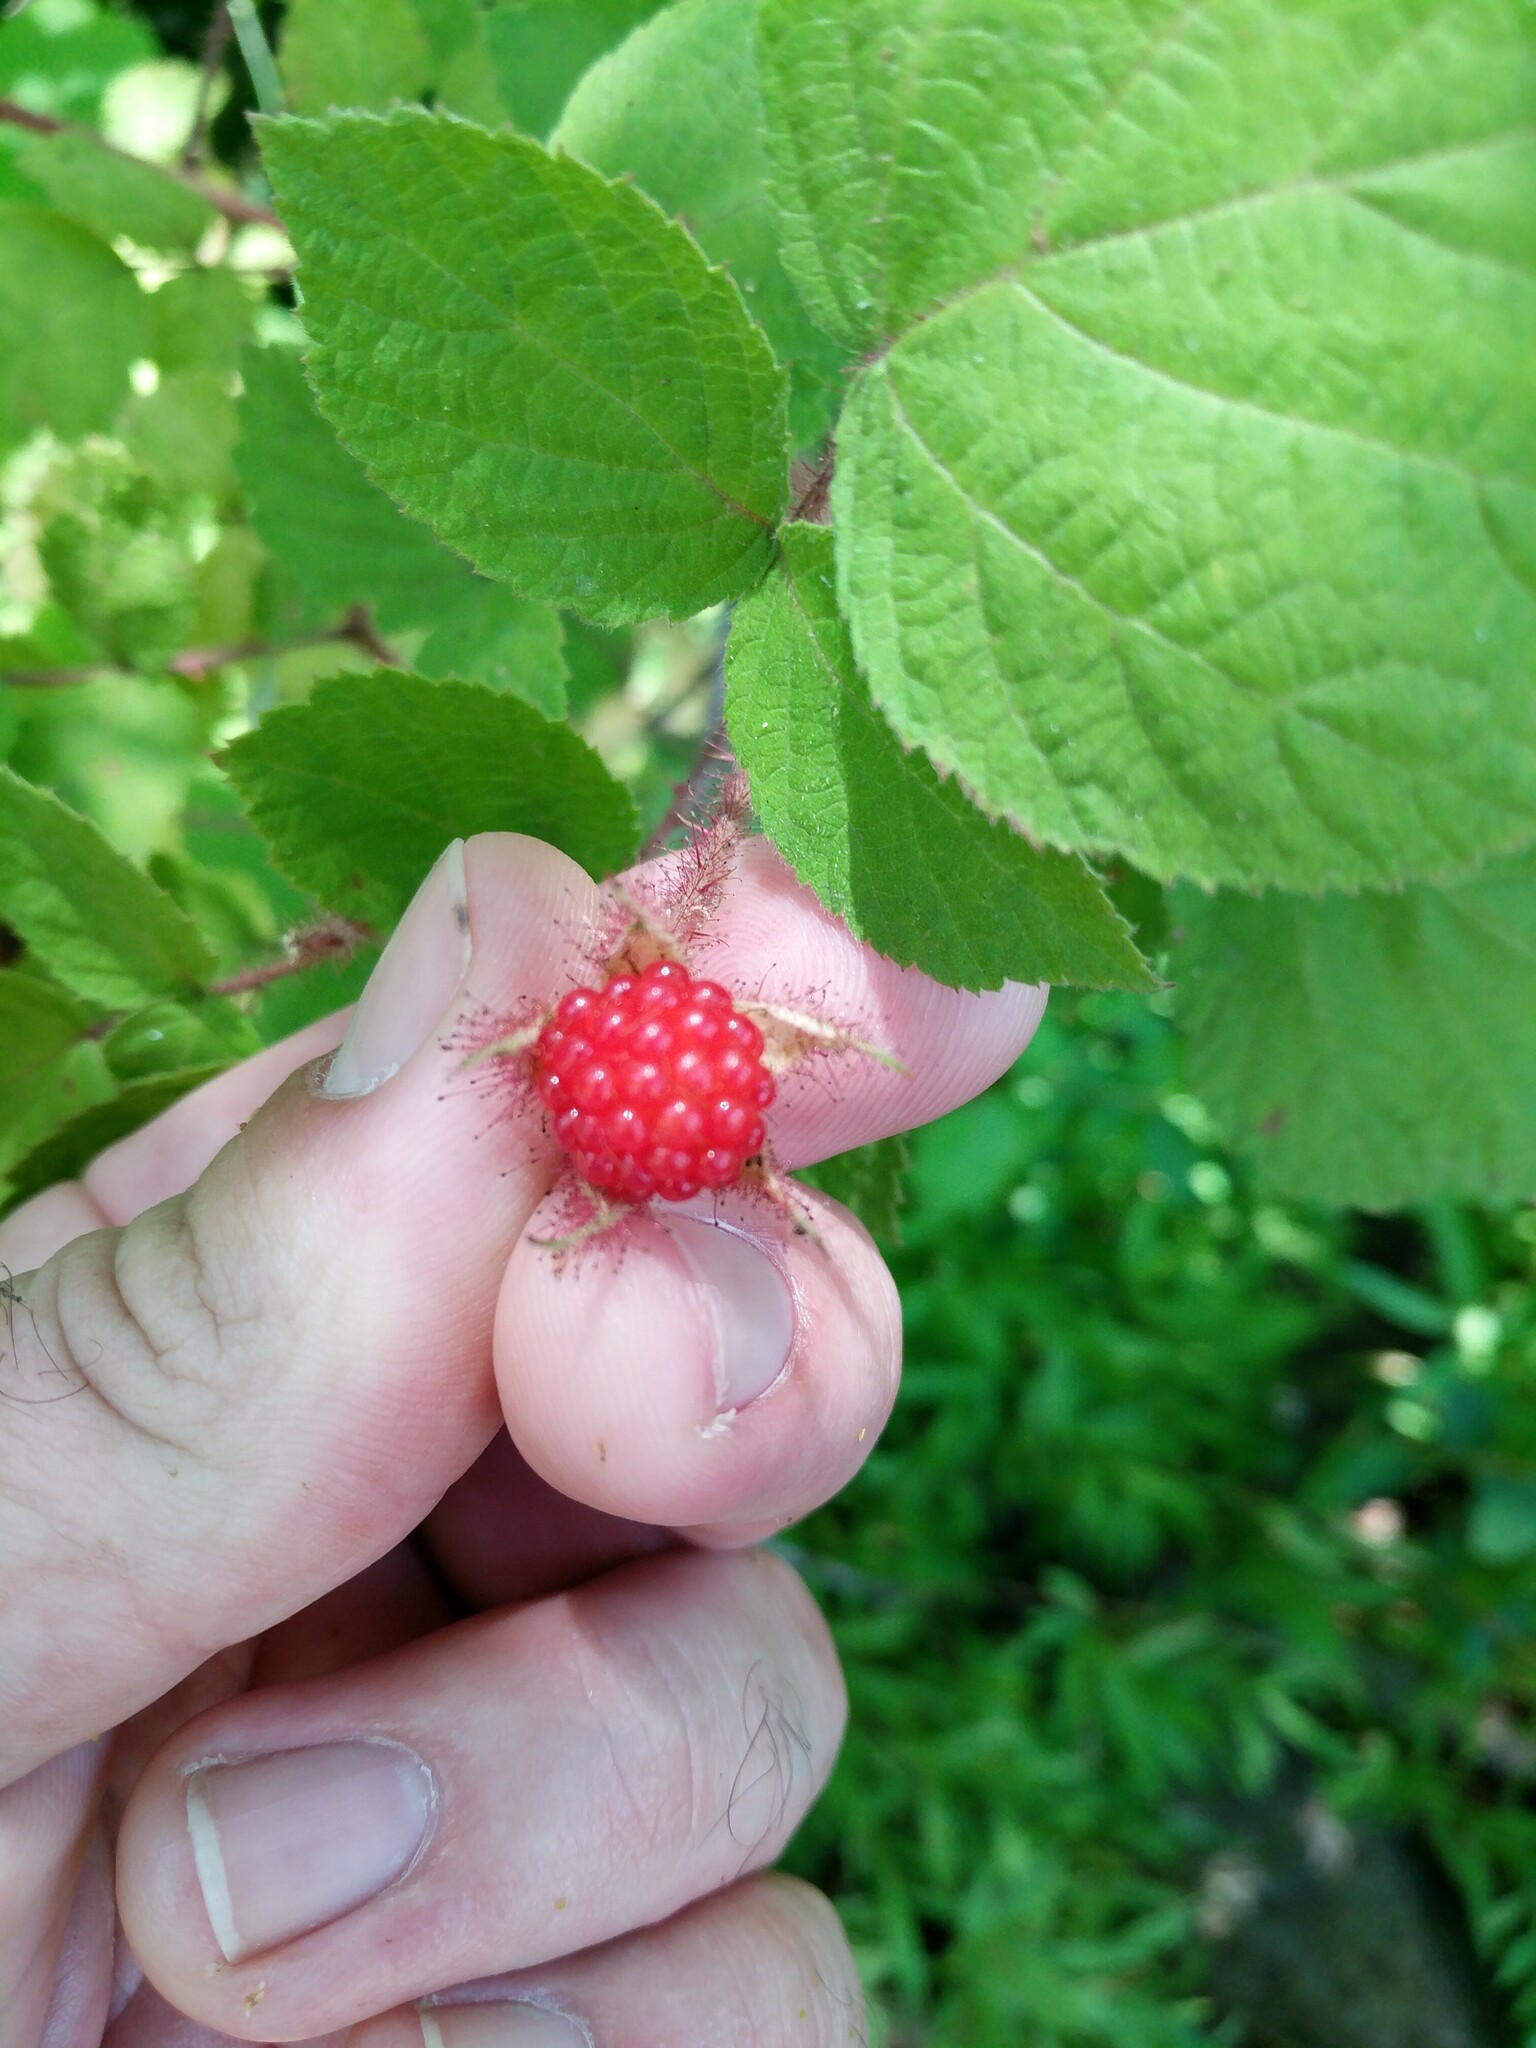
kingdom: Plantae
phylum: Tracheophyta
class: Magnoliopsida
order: Rosales
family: Rosaceae
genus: Rubus
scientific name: Rubus phoenicolasius
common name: Japanese wineberry
